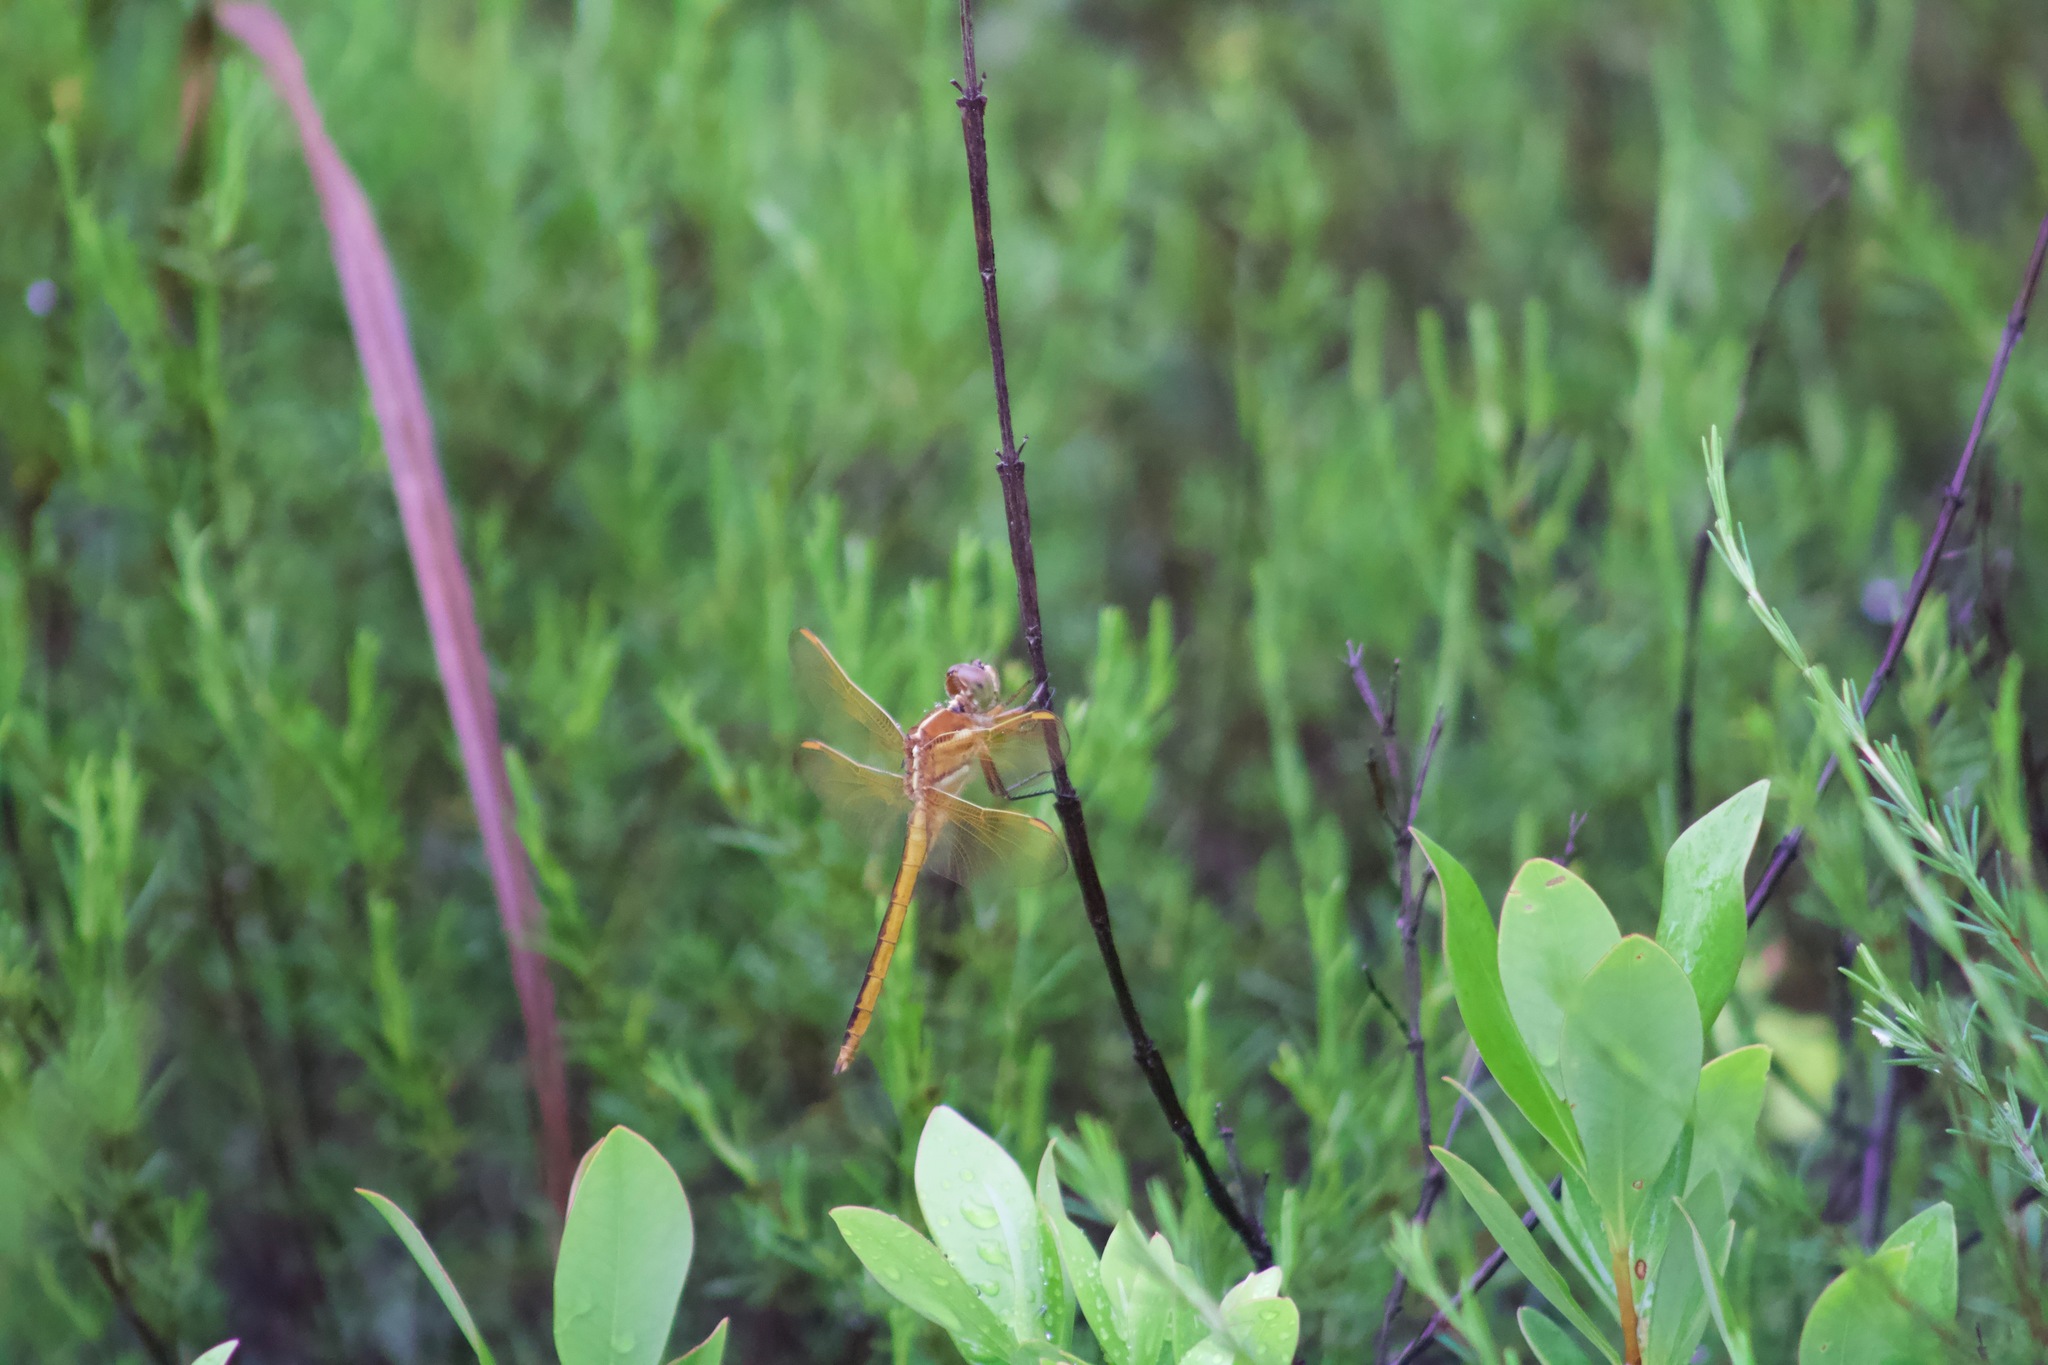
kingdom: Animalia
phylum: Arthropoda
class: Insecta
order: Odonata
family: Libellulidae
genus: Libellula
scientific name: Libellula auripennis
